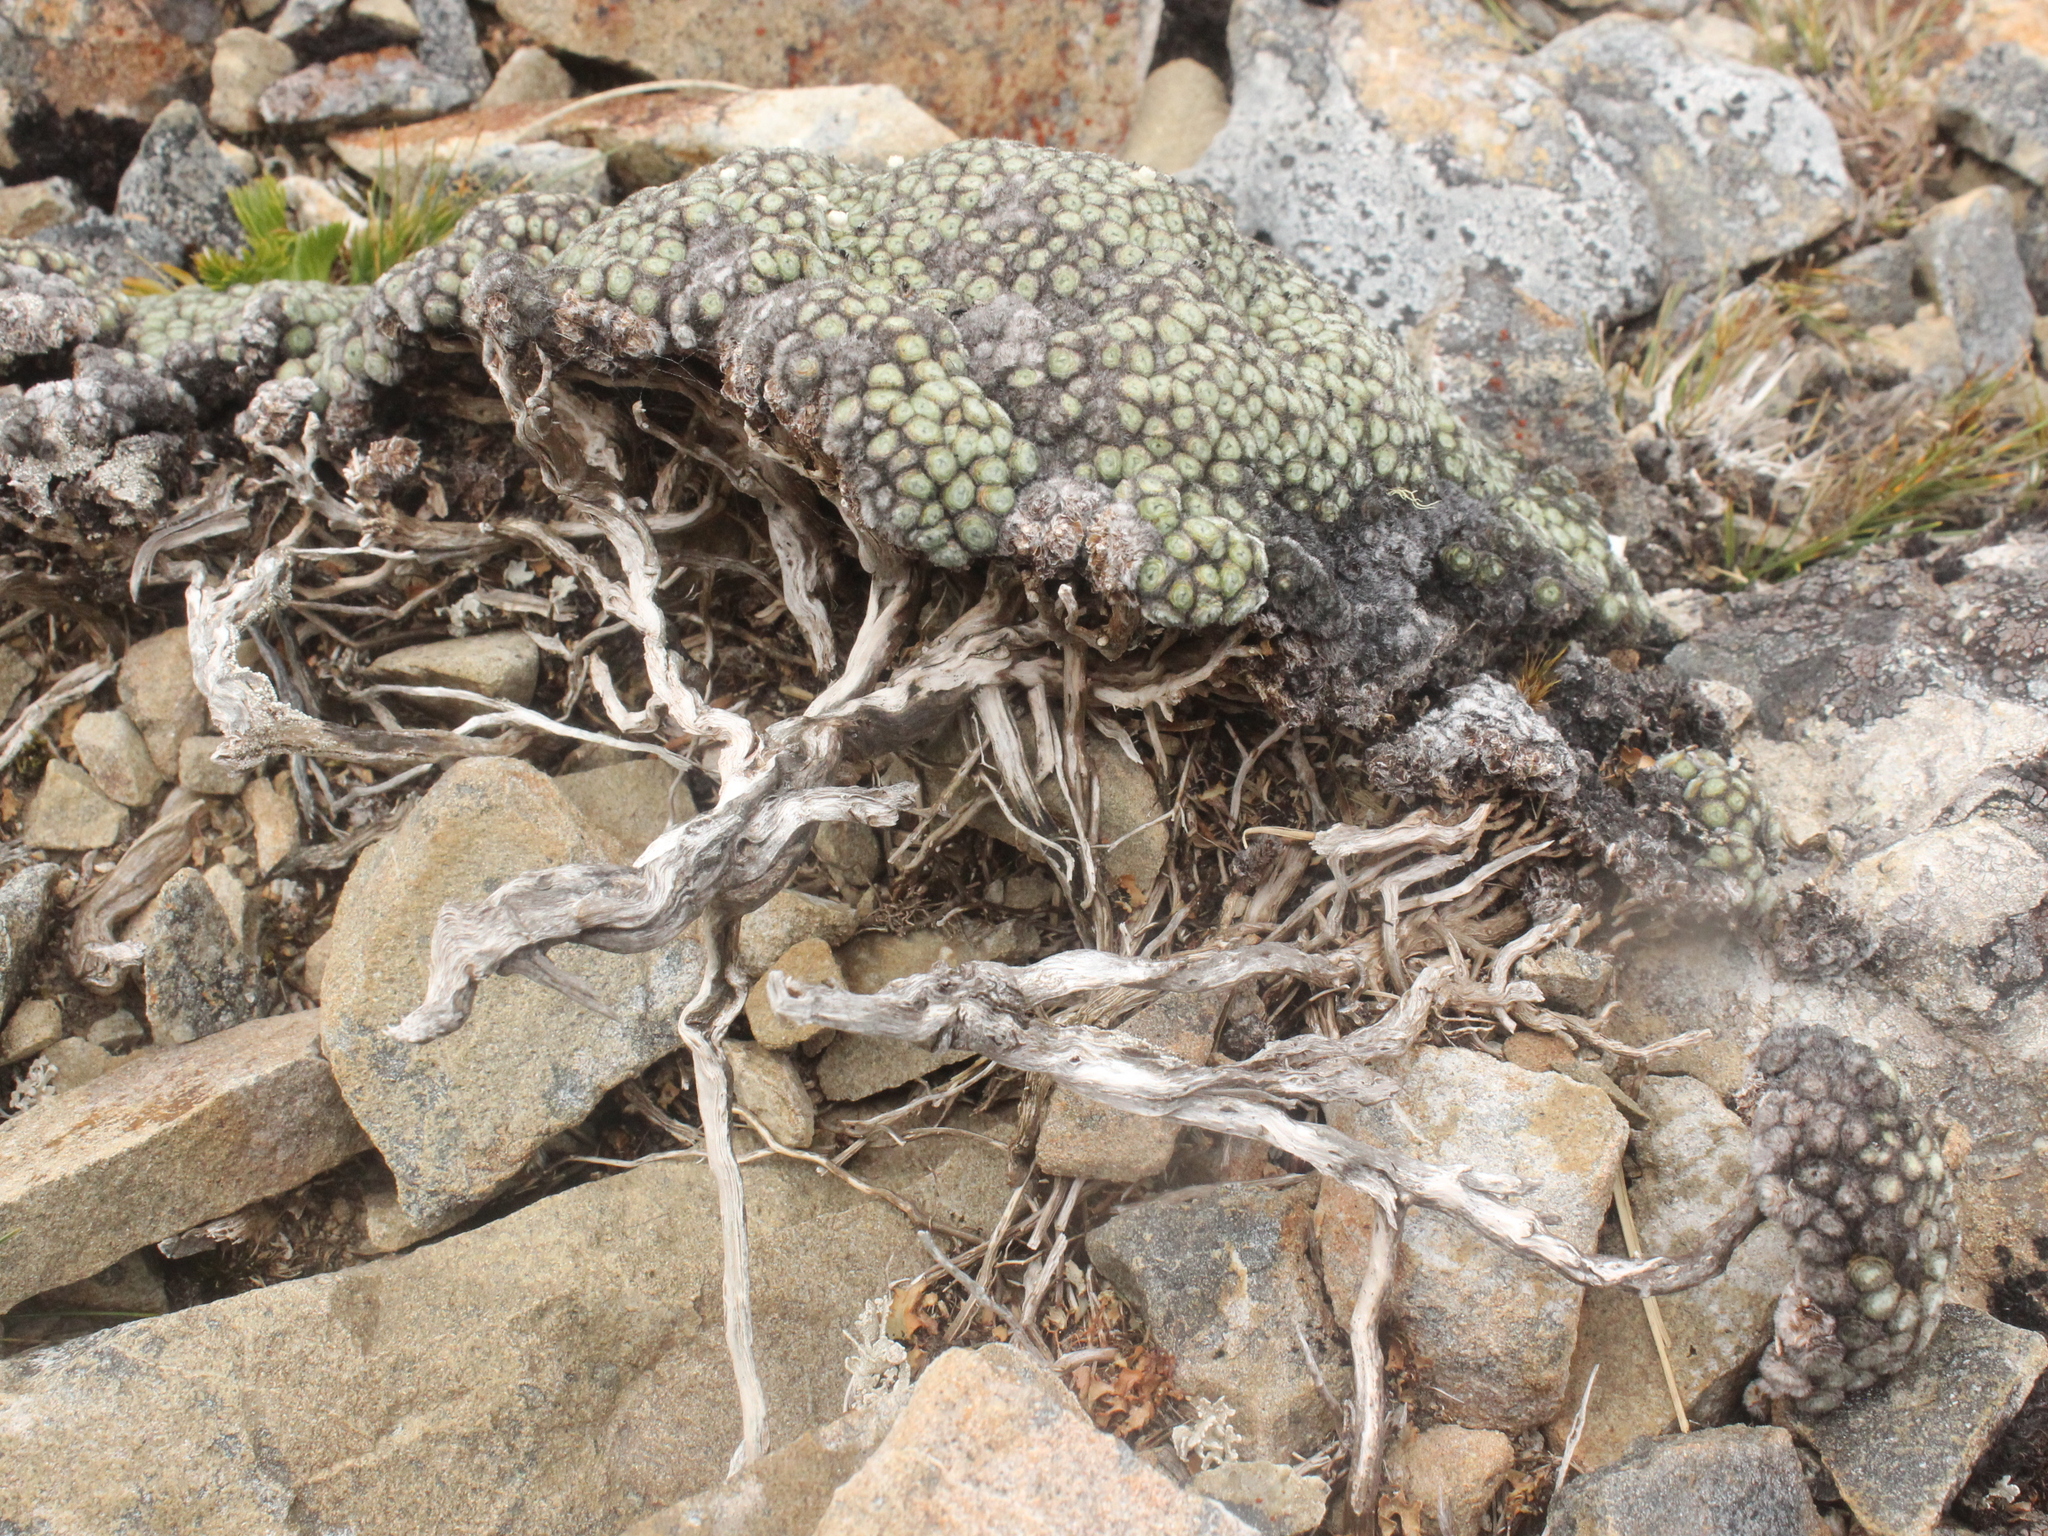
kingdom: Plantae
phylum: Tracheophyta
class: Magnoliopsida
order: Asterales
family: Asteraceae
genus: Raoulia
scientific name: Raoulia rubra
